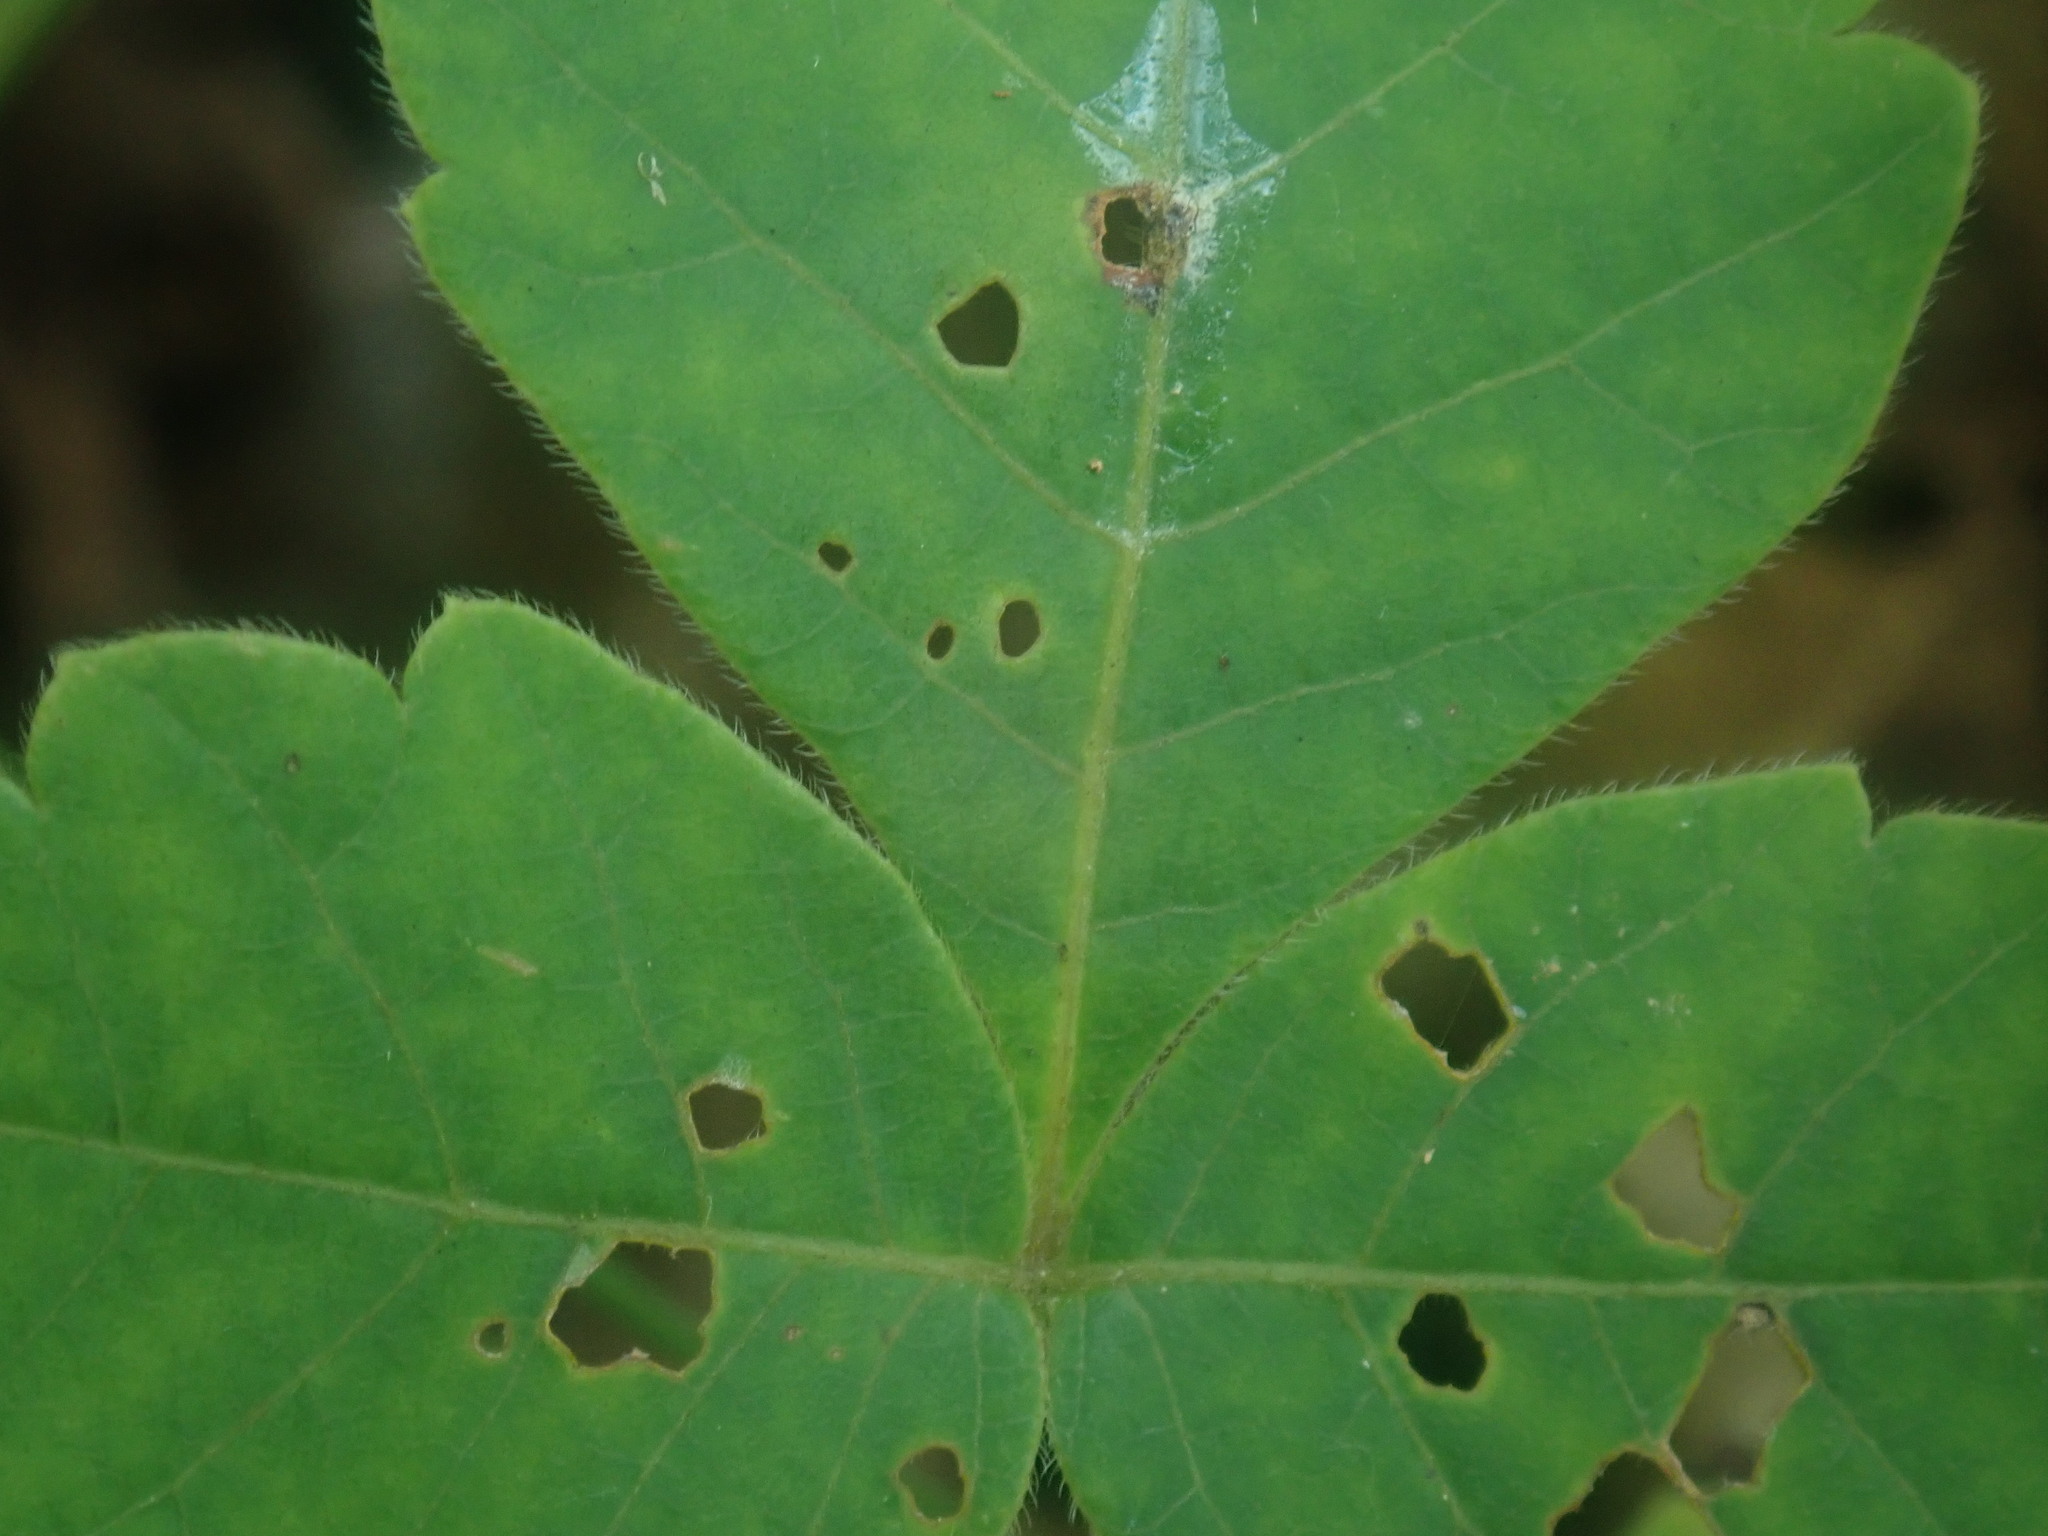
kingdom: Plantae
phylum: Tracheophyta
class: Magnoliopsida
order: Sapindales
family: Anacardiaceae
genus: Rhus
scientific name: Rhus aromatica
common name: Aromatic sumac
